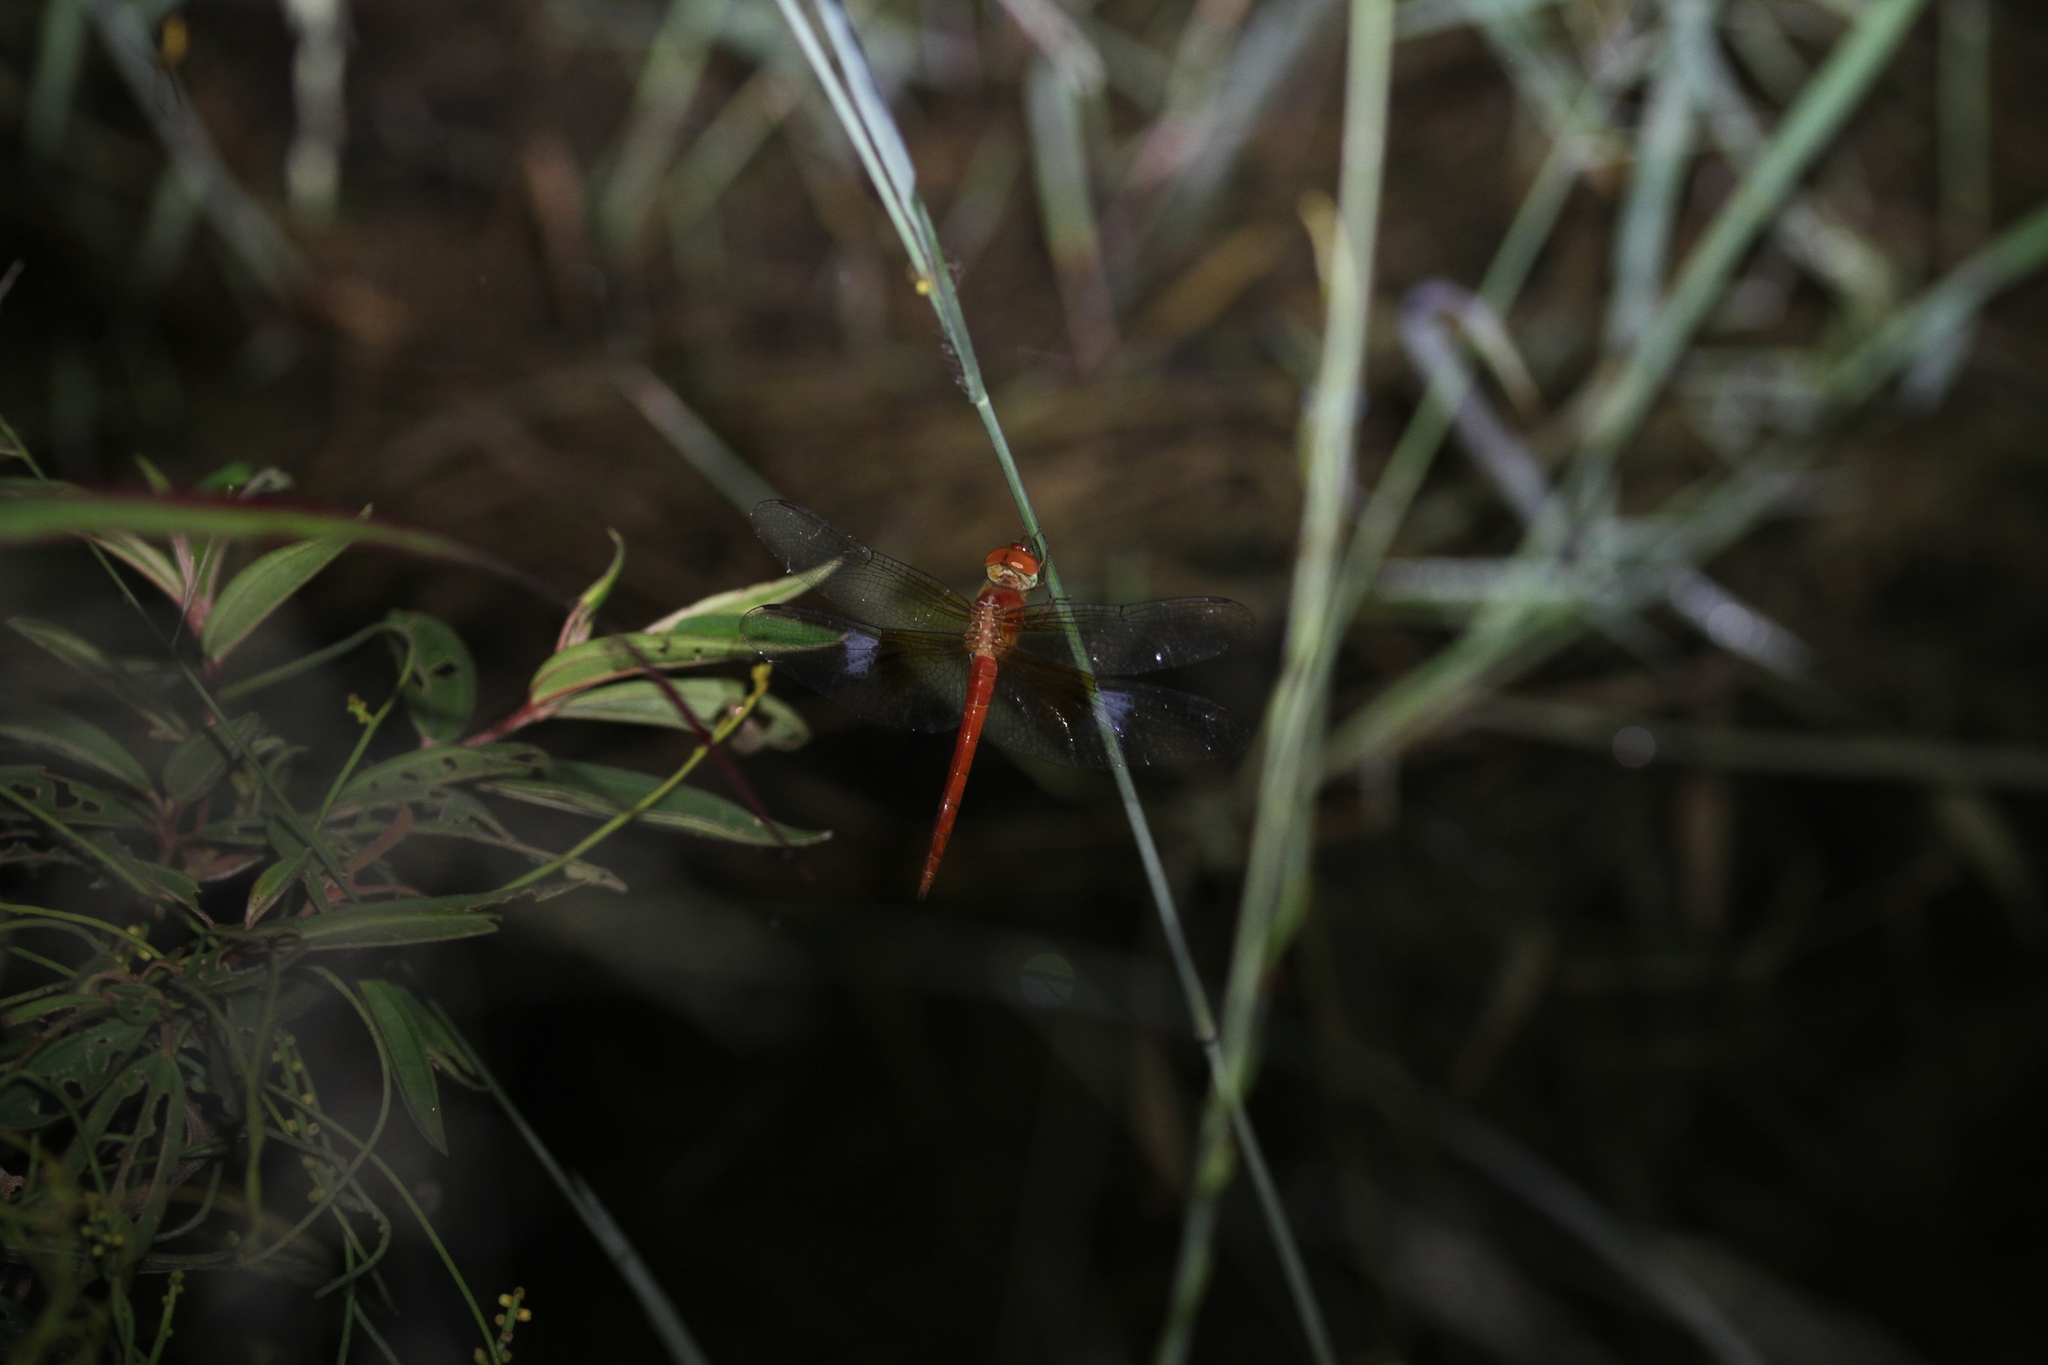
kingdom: Animalia
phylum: Arthropoda
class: Insecta
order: Odonata
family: Libellulidae
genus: Tholymis
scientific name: Tholymis tillarga
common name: Coral-tailed cloud wing
